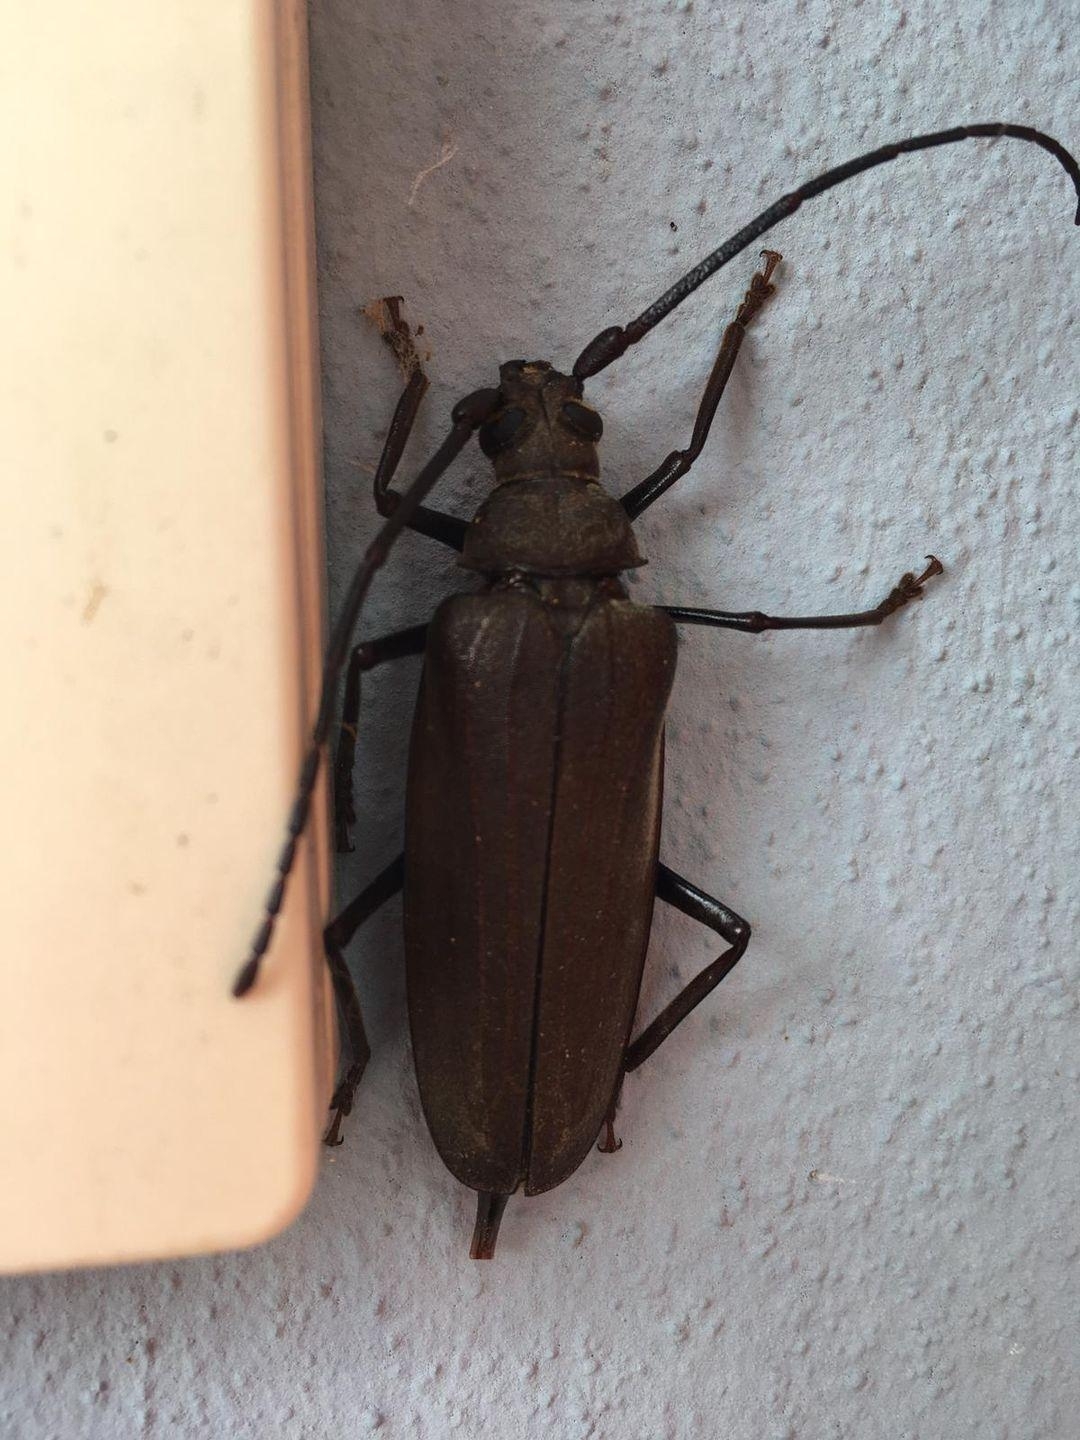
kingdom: Animalia
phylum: Arthropoda
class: Insecta
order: Coleoptera
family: Cerambycidae
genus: Aegosoma
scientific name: Aegosoma scabricorne
